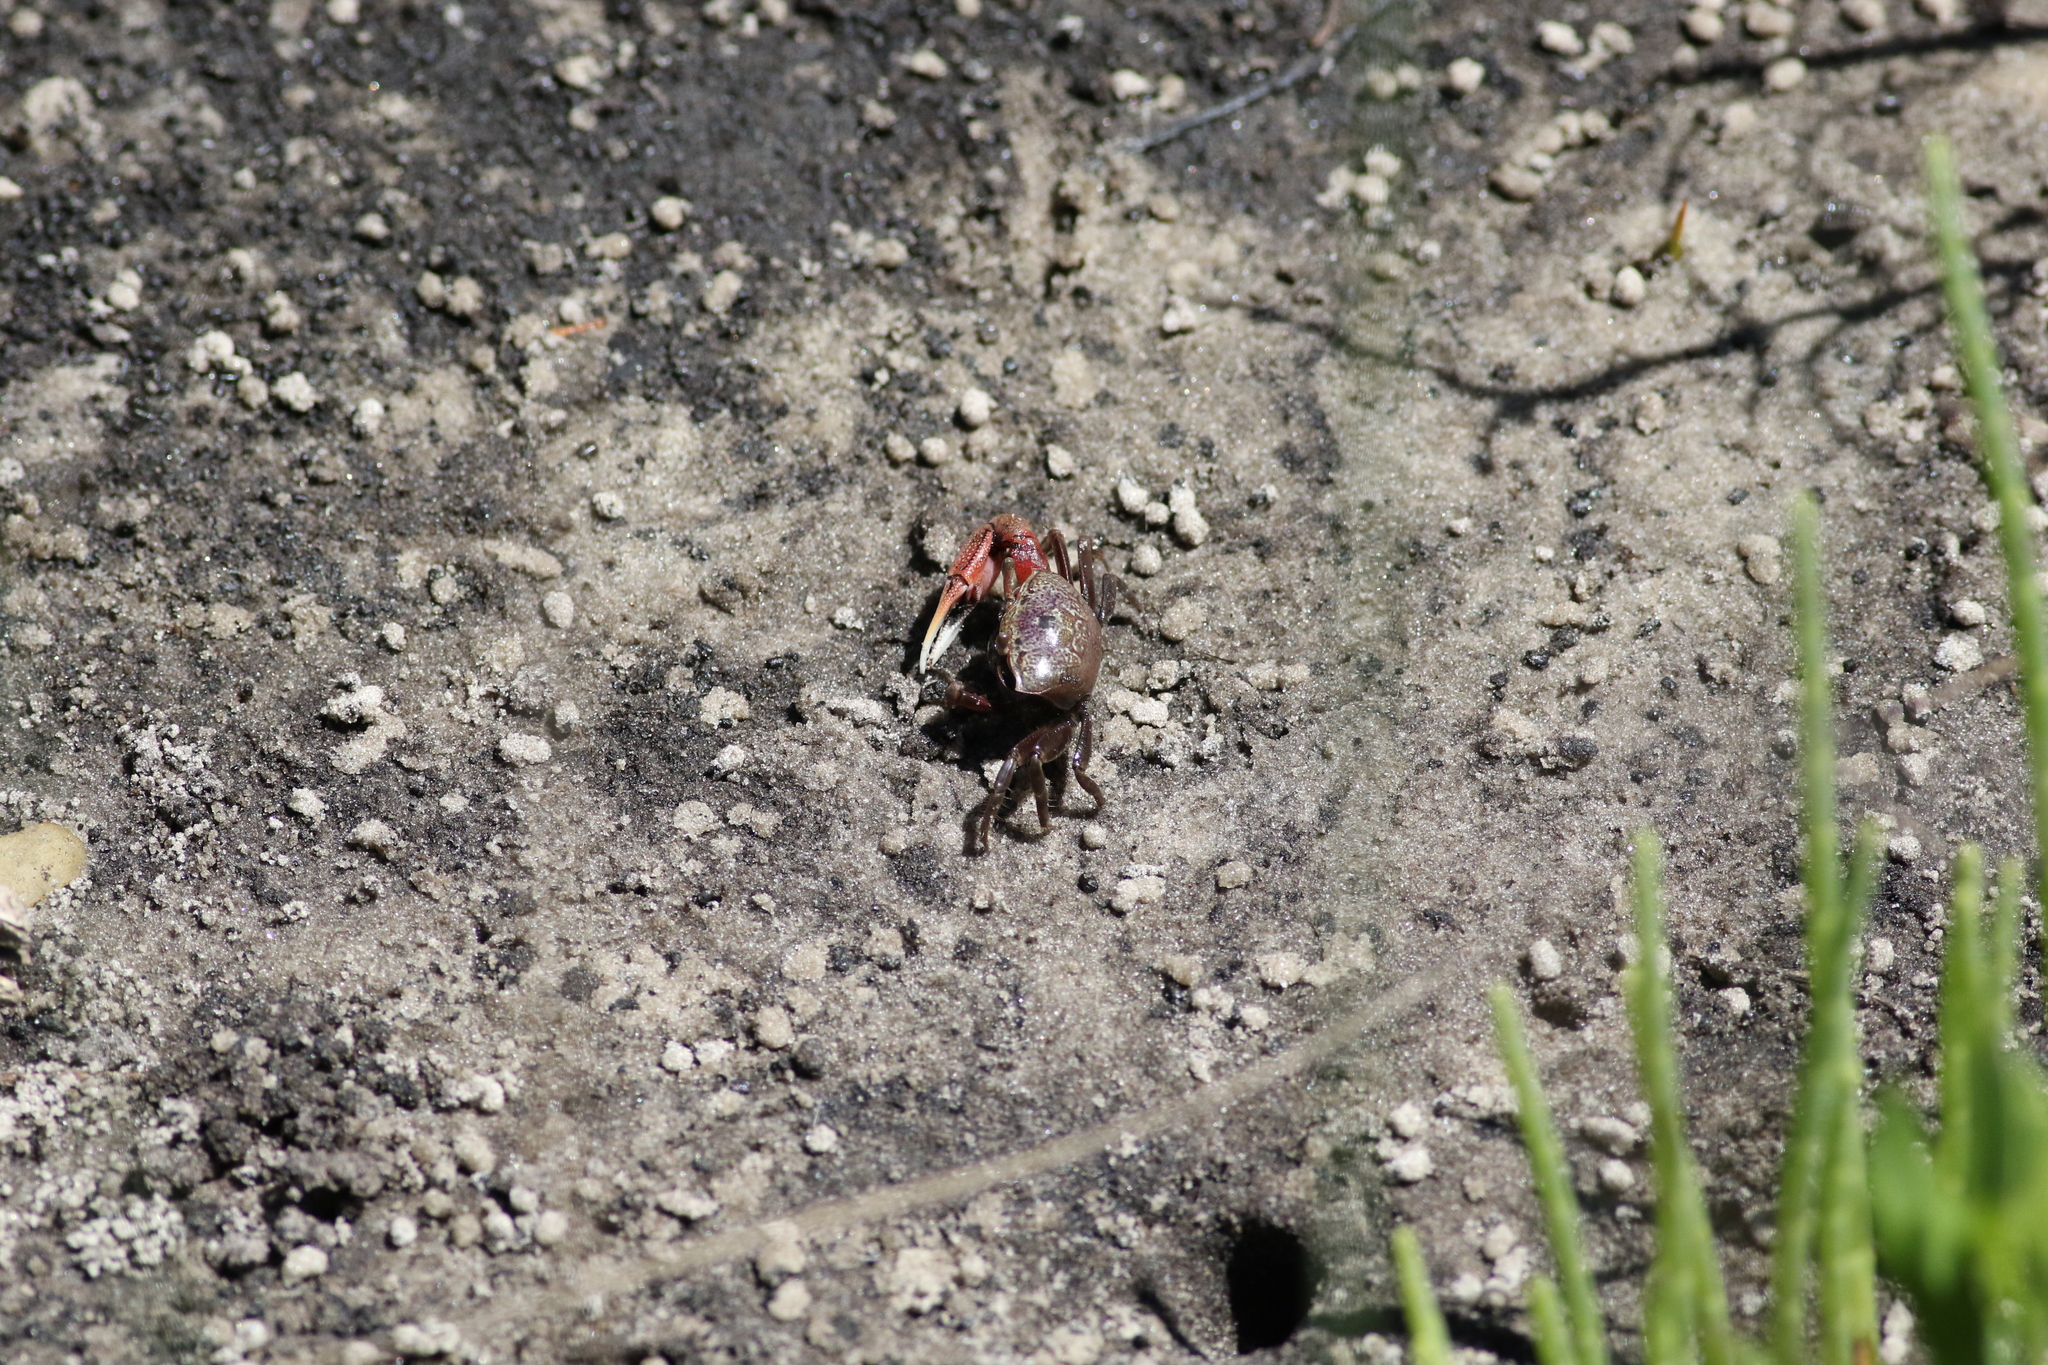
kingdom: Animalia
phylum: Arthropoda
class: Malacostraca
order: Decapoda
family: Ocypodidae
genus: Leptuca
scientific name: Leptuca pugilator
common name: Atlantic sand fiddler crab
